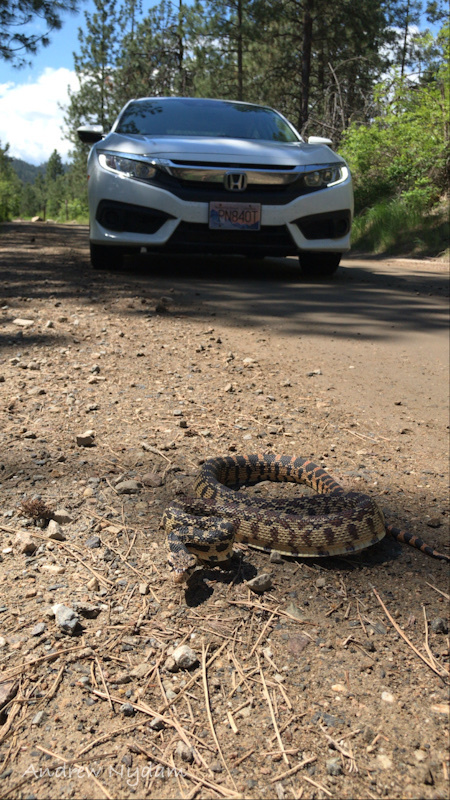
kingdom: Animalia
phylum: Chordata
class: Squamata
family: Colubridae
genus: Pituophis
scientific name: Pituophis catenifer
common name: Gopher snake
